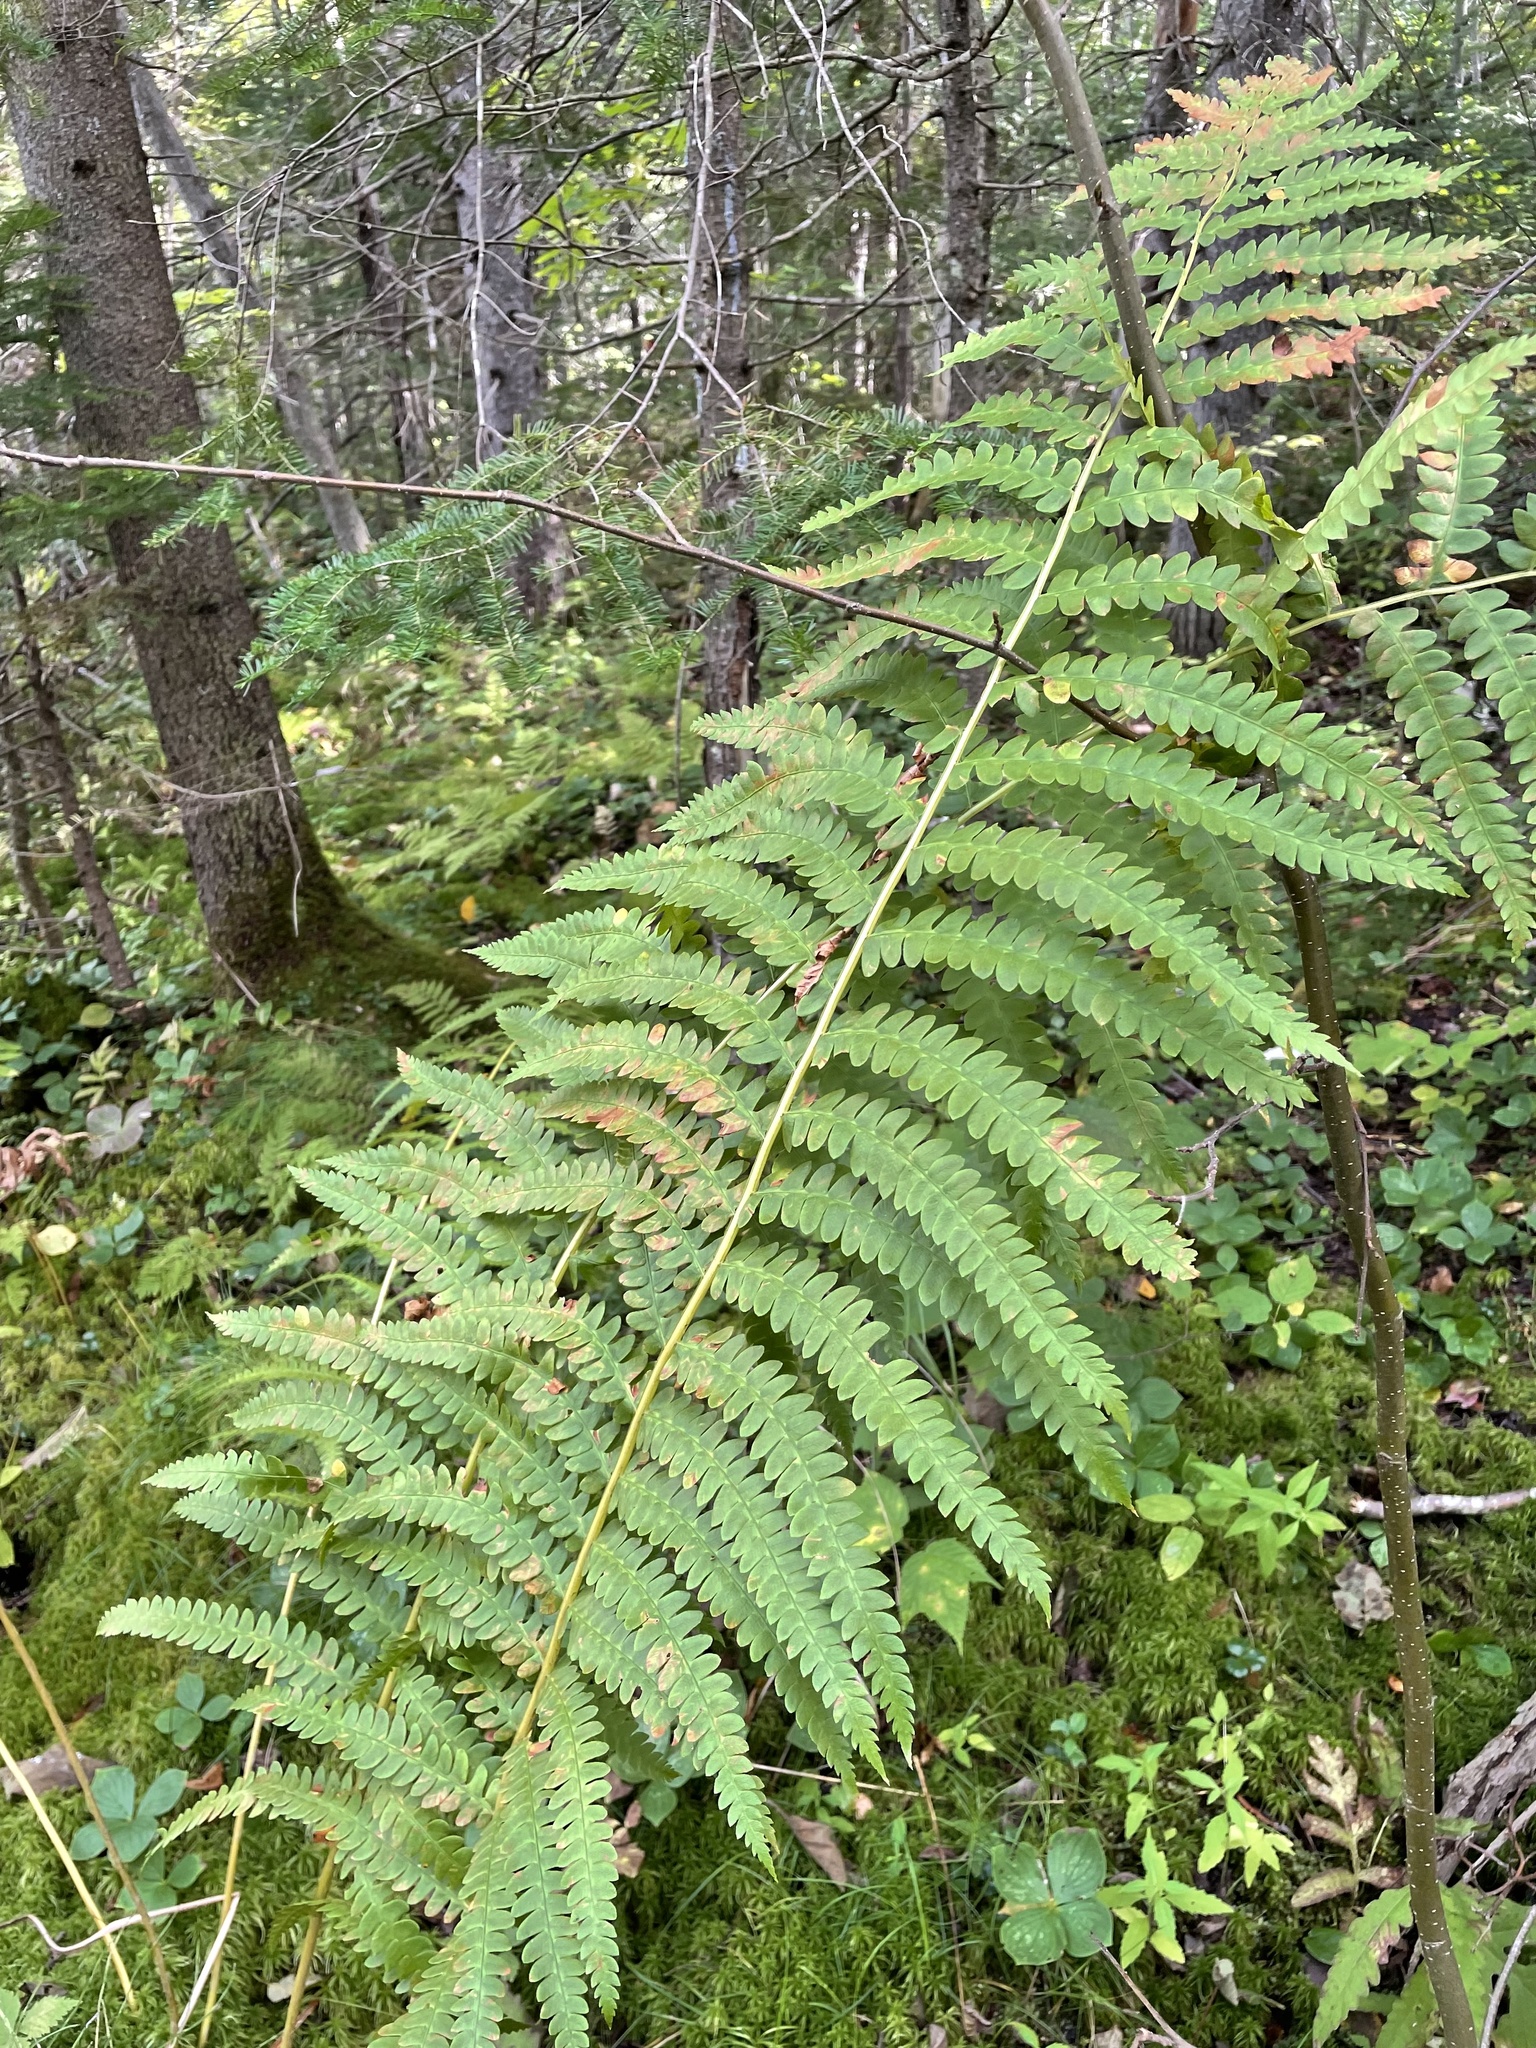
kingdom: Plantae
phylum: Tracheophyta
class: Polypodiopsida
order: Osmundales
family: Osmundaceae
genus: Osmundastrum
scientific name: Osmundastrum cinnamomeum
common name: Cinnamon fern
